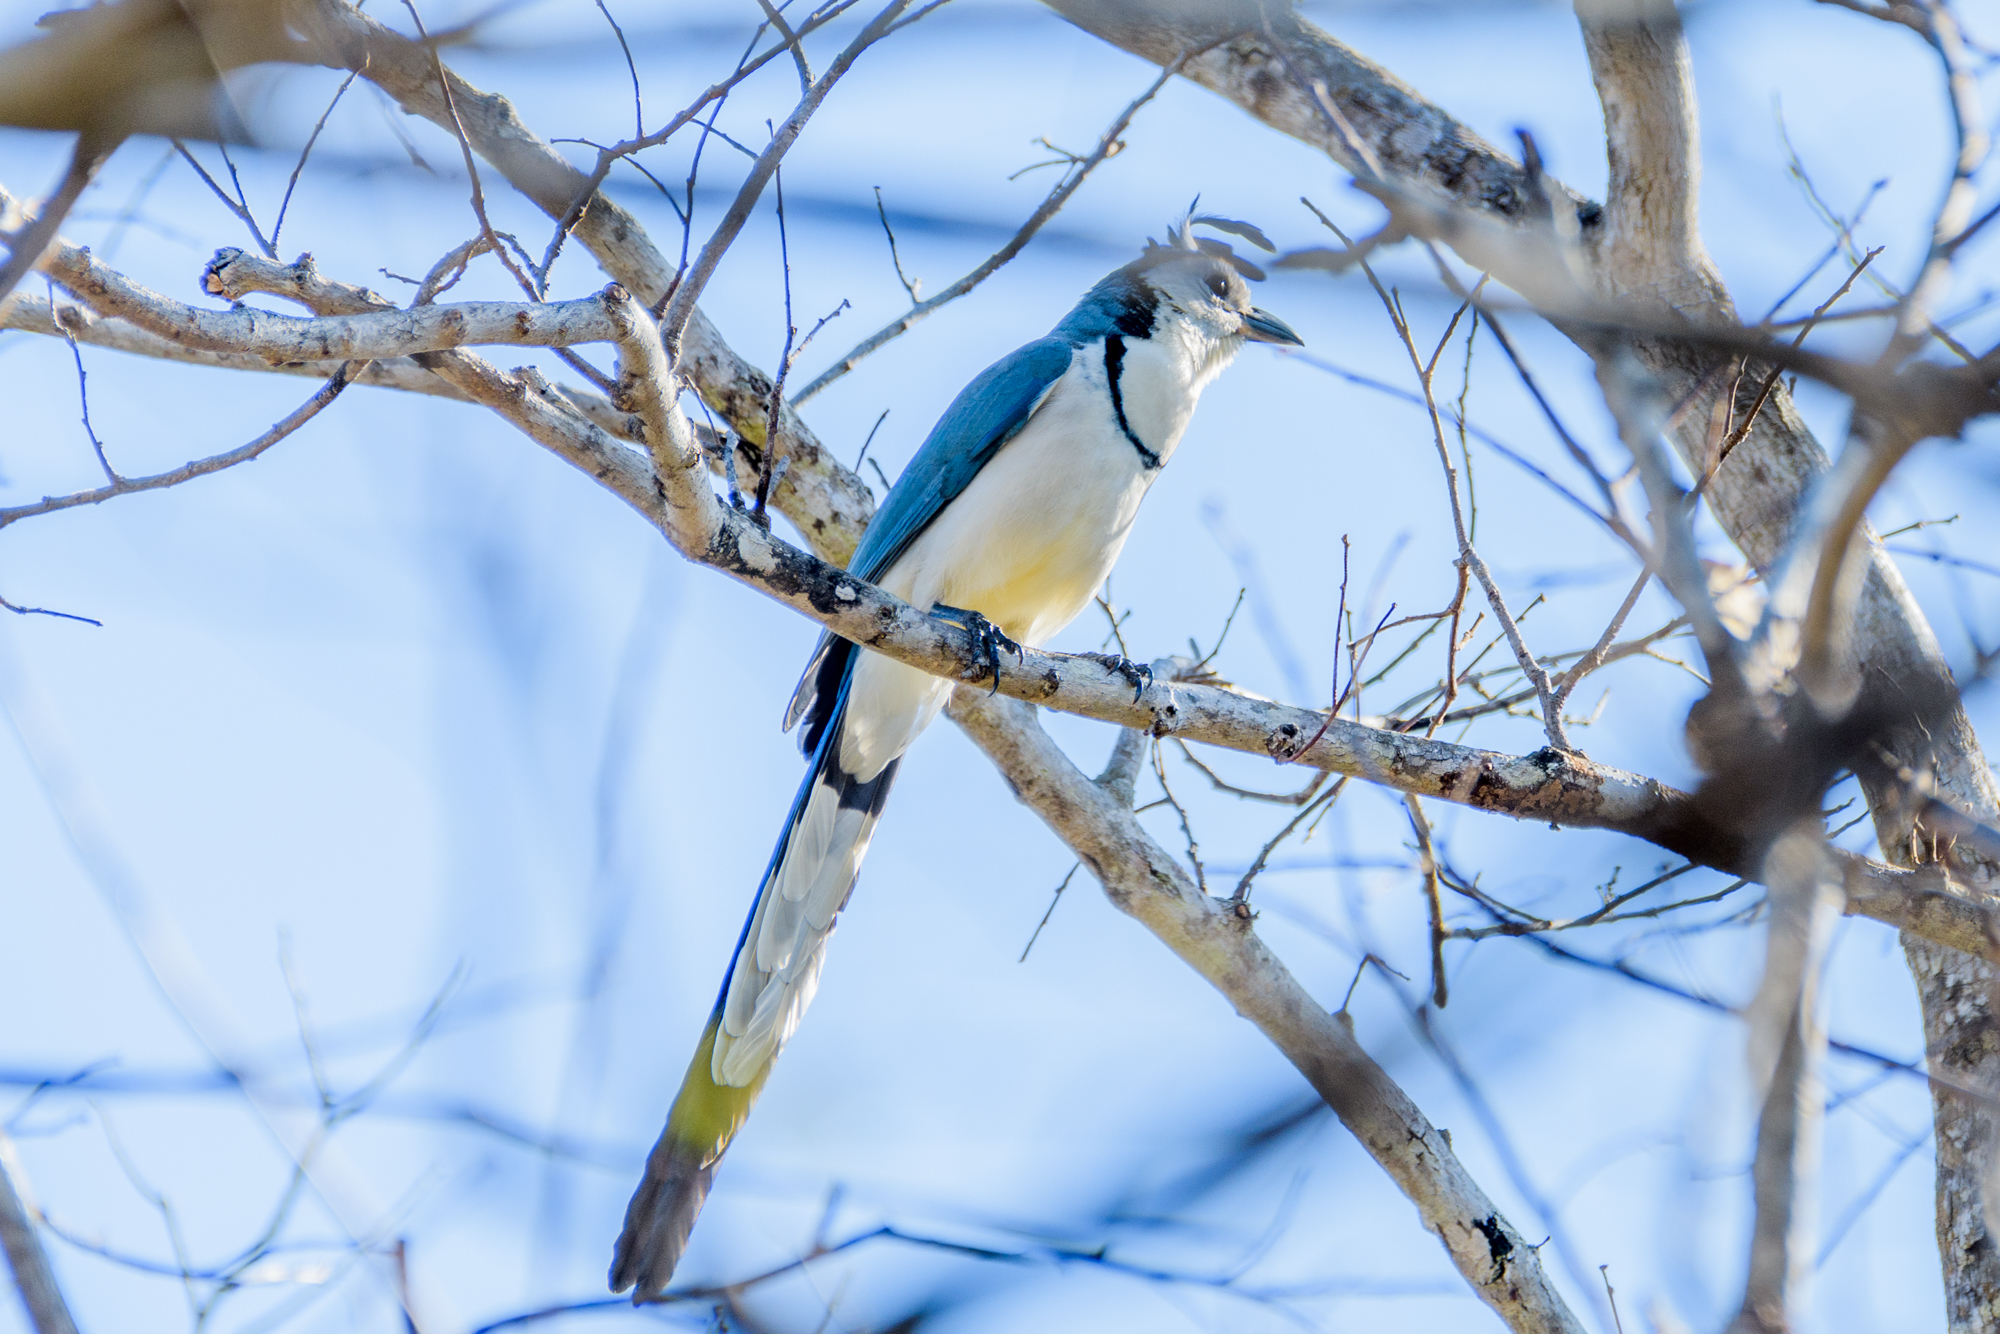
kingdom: Animalia
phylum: Chordata
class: Aves
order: Passeriformes
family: Corvidae
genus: Calocitta
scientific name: Calocitta formosa
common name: White-throated magpie-jay
